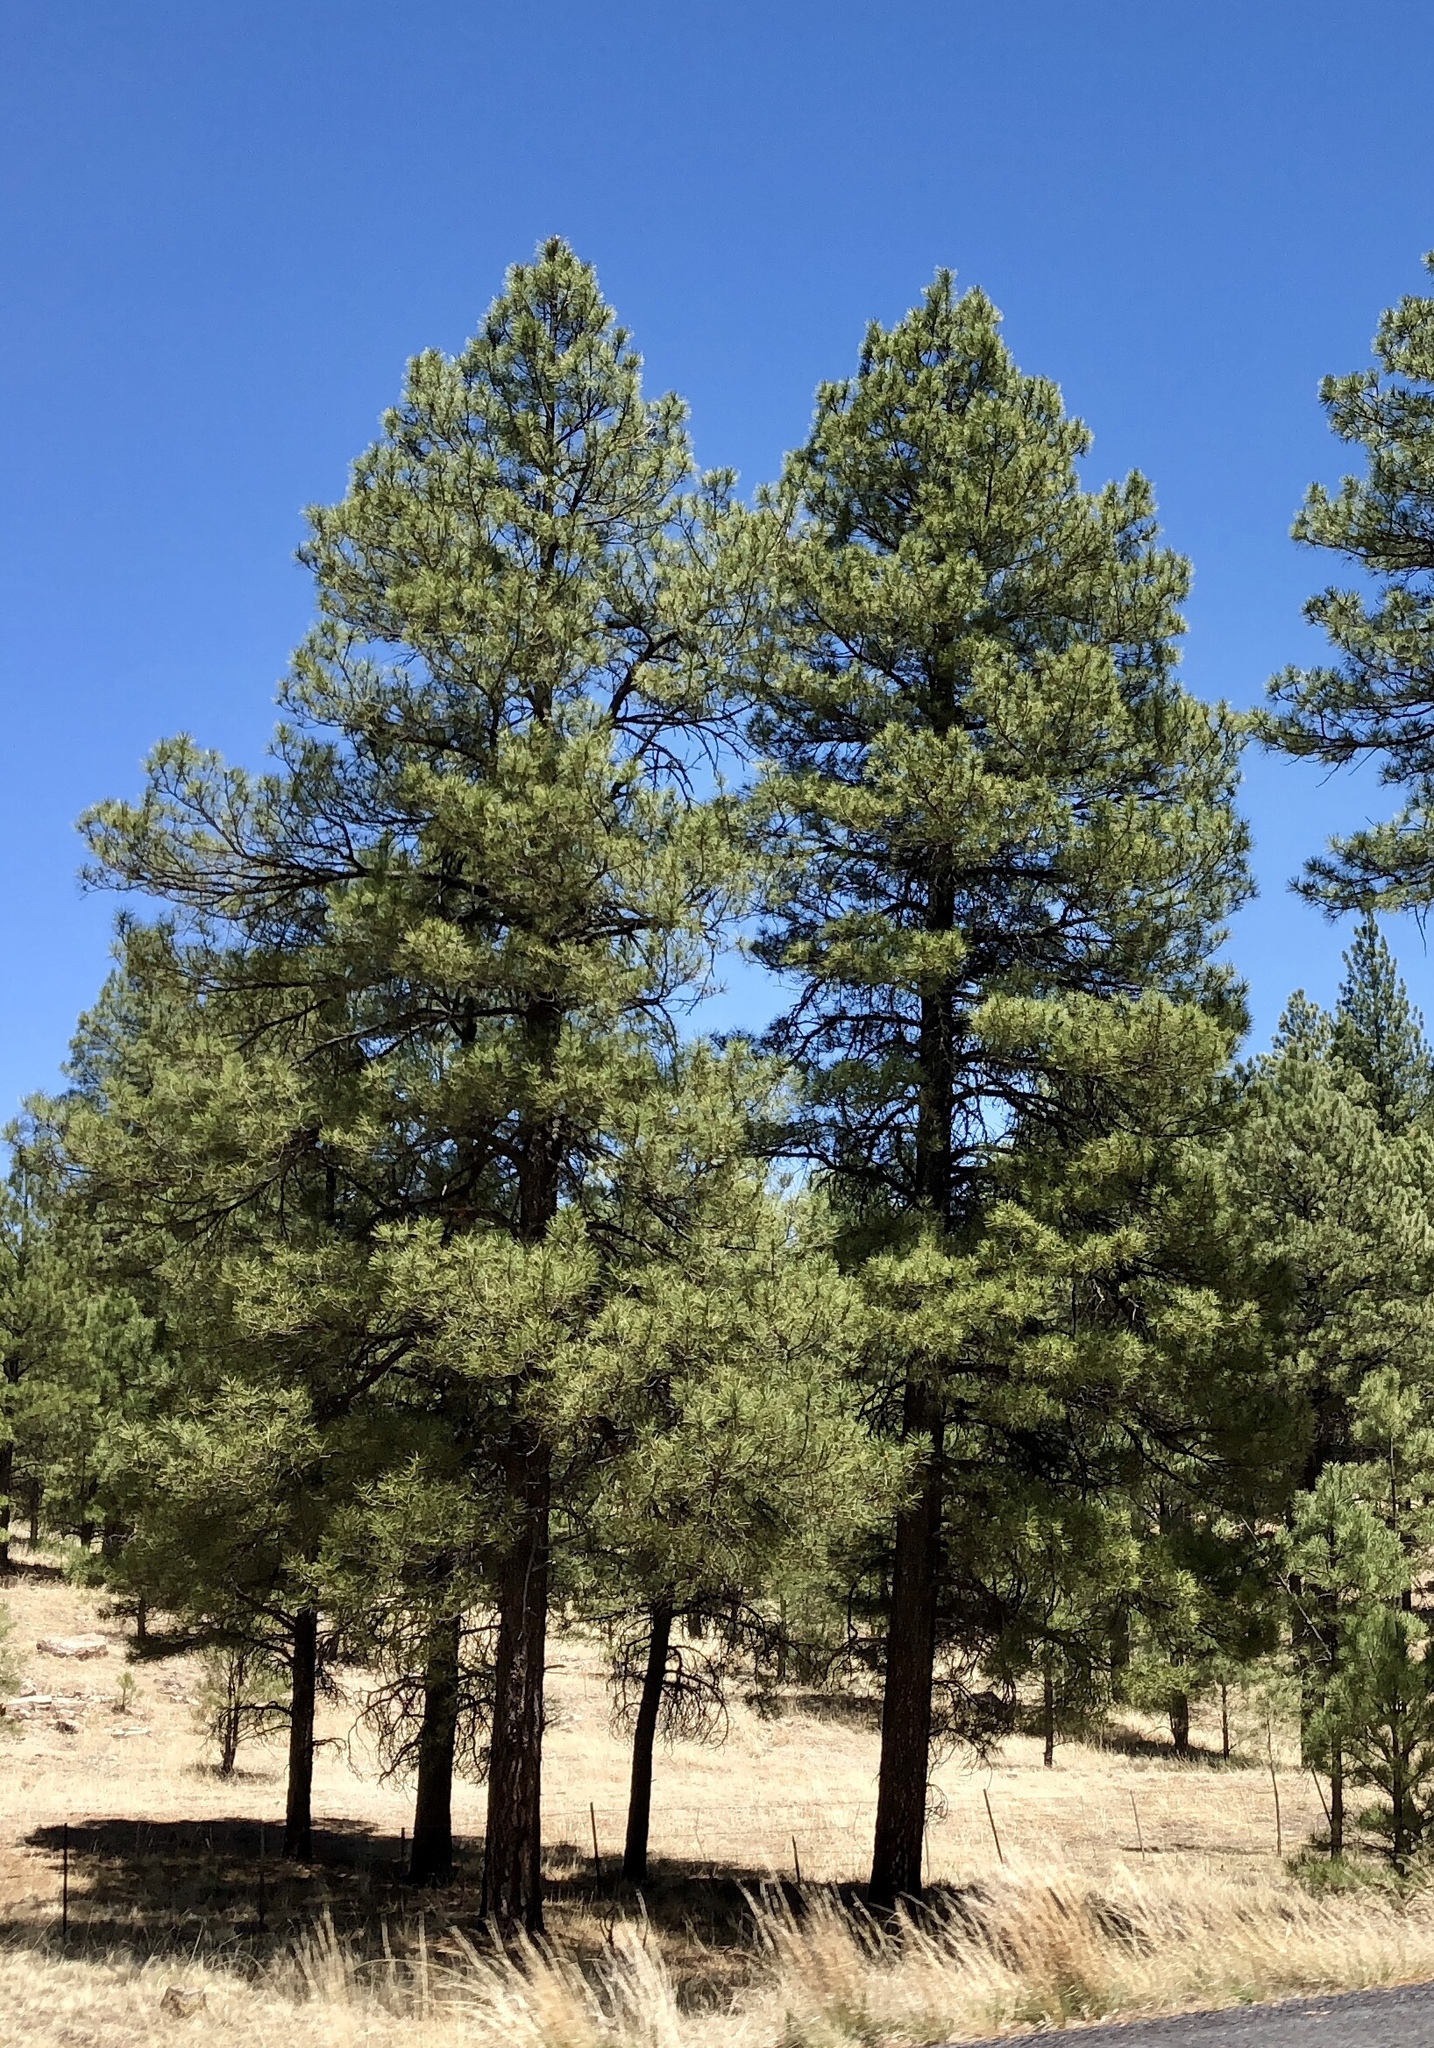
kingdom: Plantae
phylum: Tracheophyta
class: Pinopsida
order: Pinales
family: Pinaceae
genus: Pinus
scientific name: Pinus ponderosa
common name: Western yellow-pine
